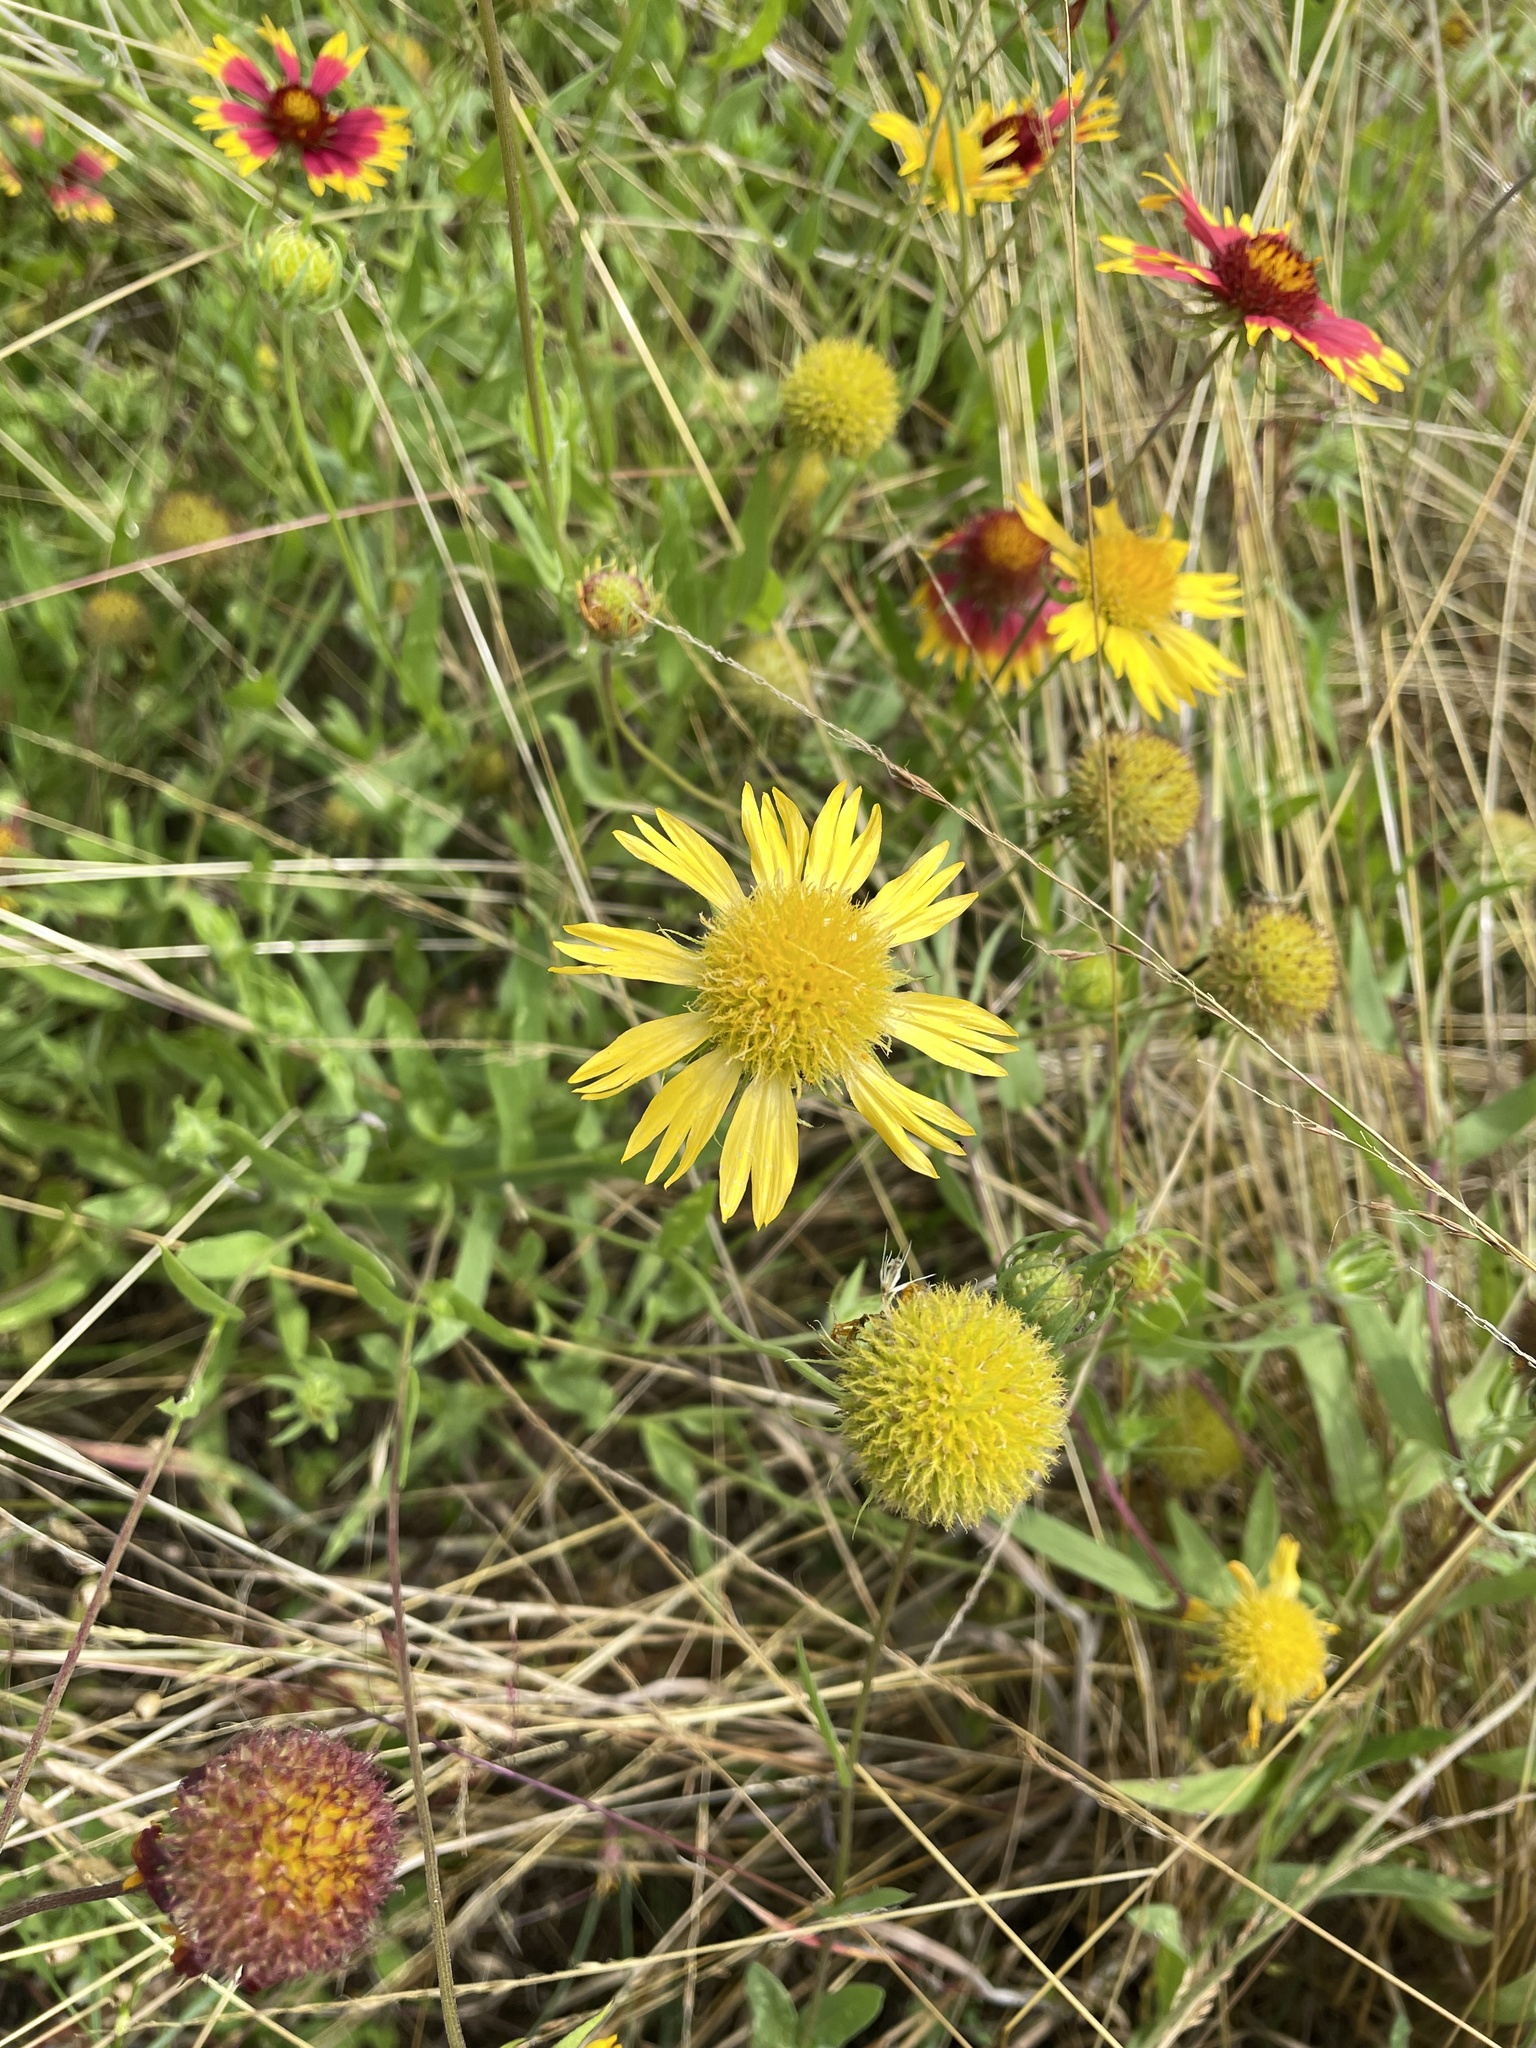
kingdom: Plantae
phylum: Tracheophyta
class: Magnoliopsida
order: Asterales
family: Asteraceae
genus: Gaillardia
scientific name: Gaillardia pulchella
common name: Firewheel
